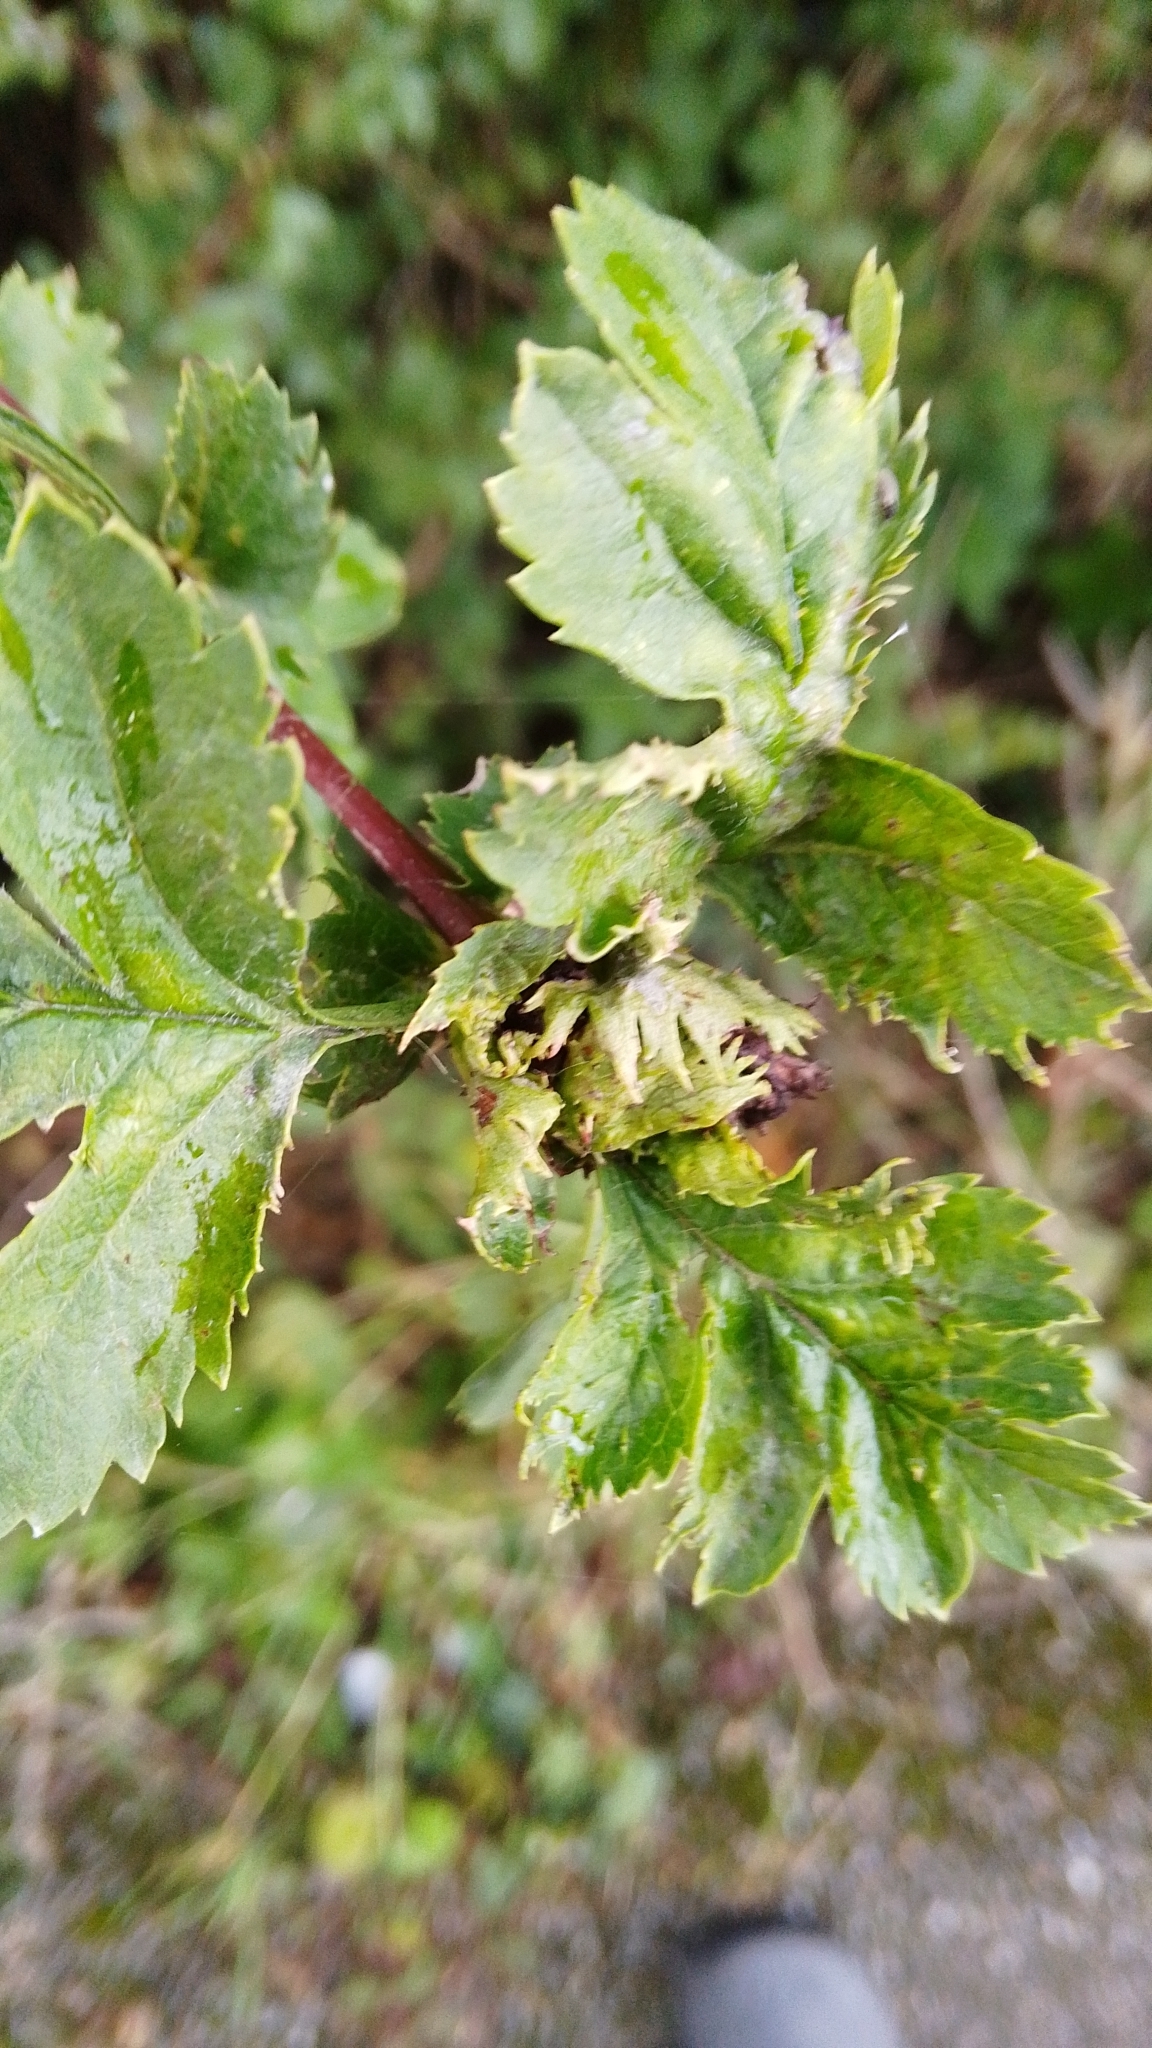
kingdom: Animalia
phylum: Arthropoda
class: Insecta
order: Diptera
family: Cecidomyiidae
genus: Dasineura
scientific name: Dasineura crataegi
